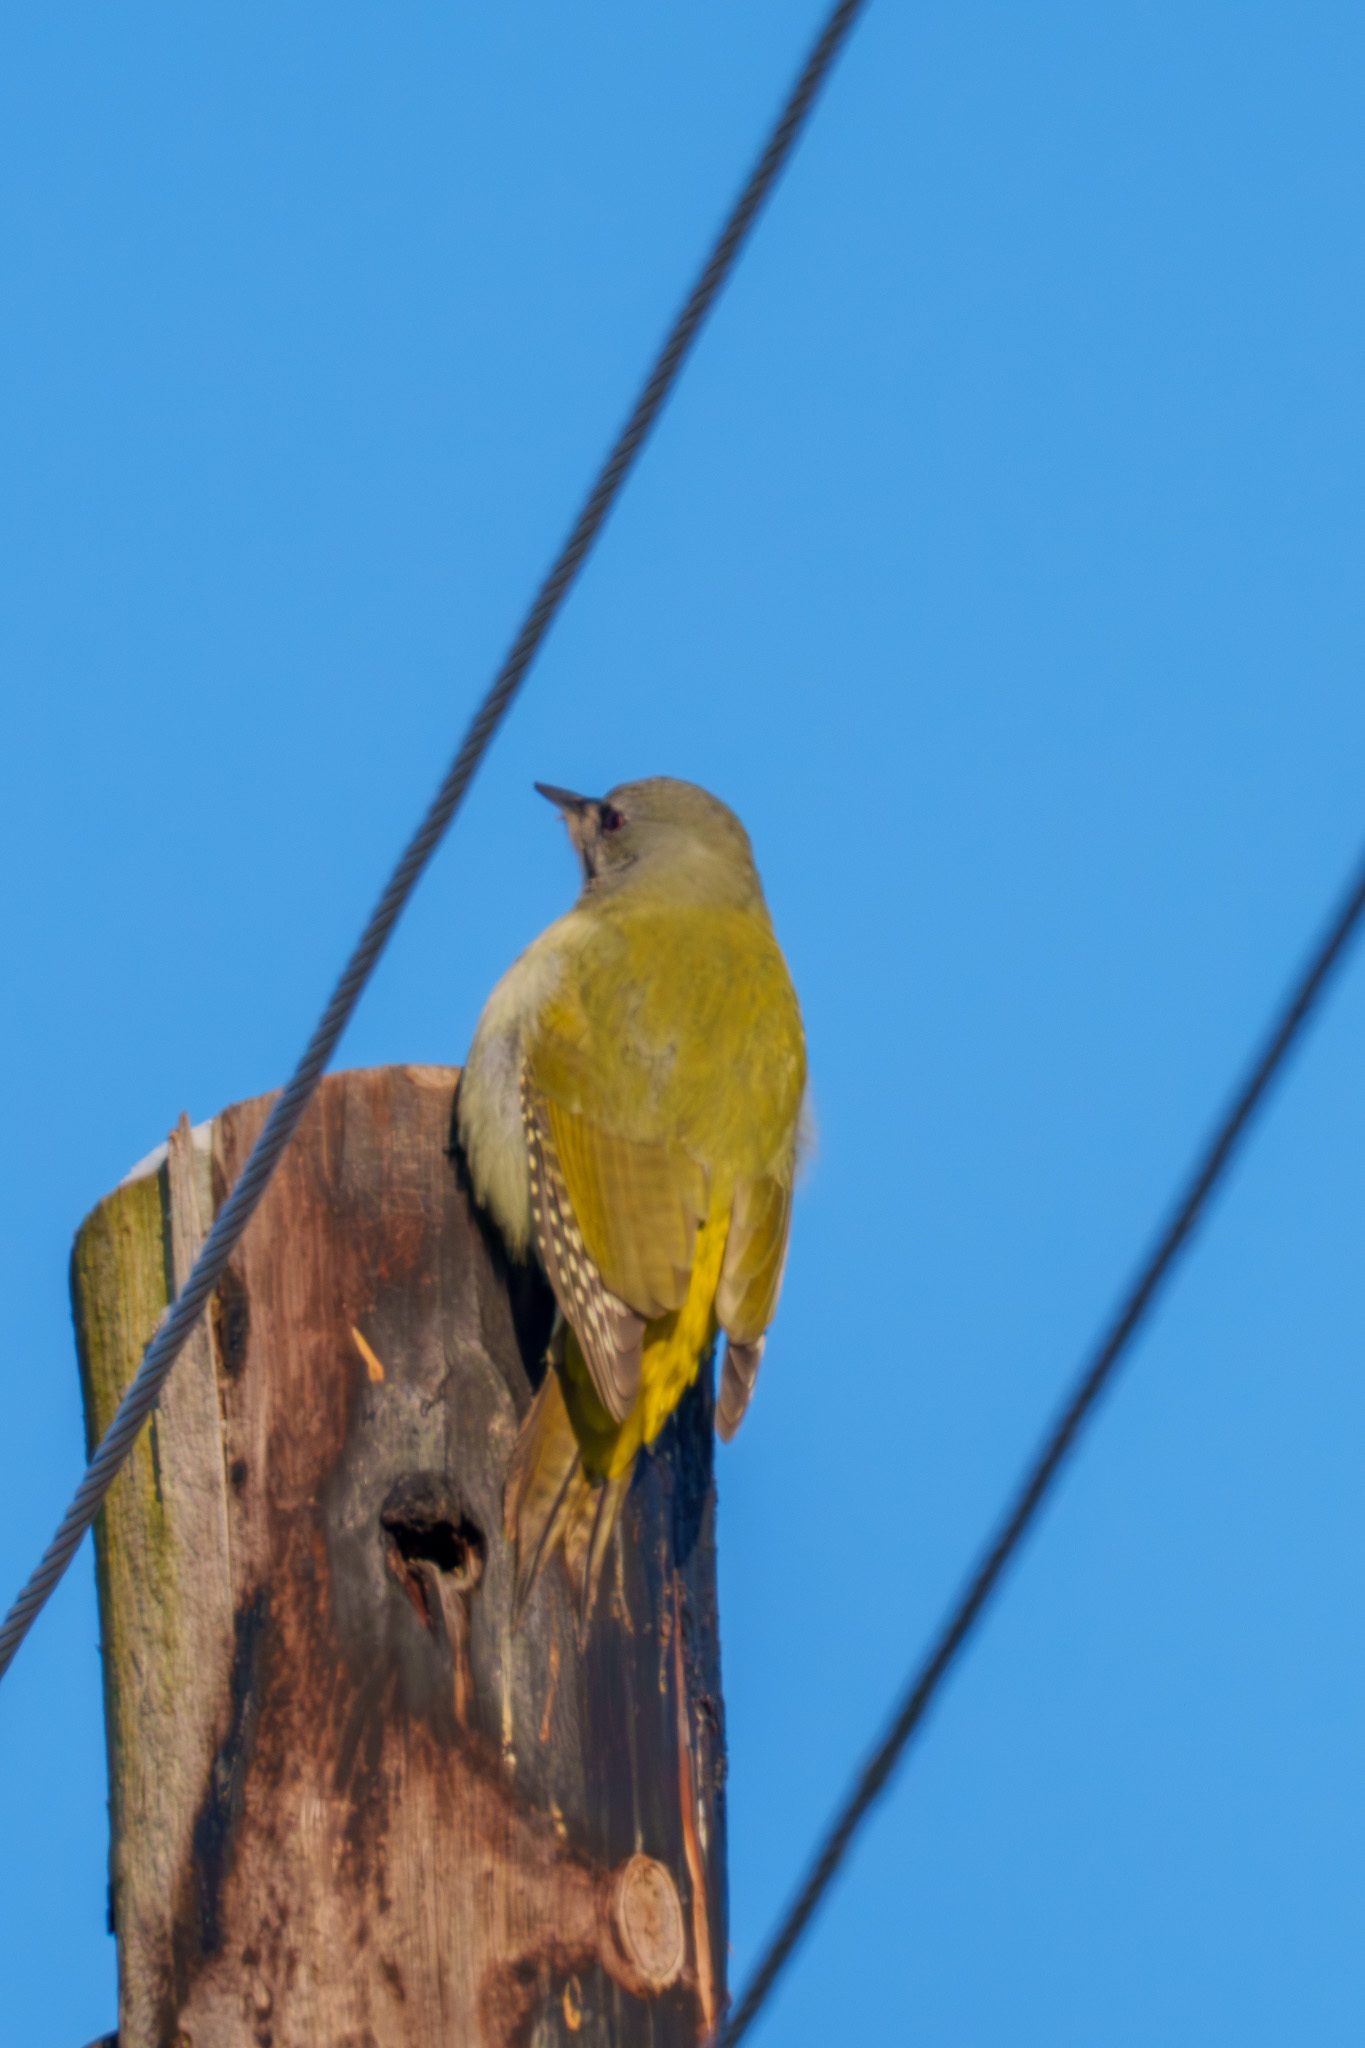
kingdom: Animalia
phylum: Chordata
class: Aves
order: Piciformes
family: Picidae
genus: Picus
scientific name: Picus canus
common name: Grey-headed woodpecker
